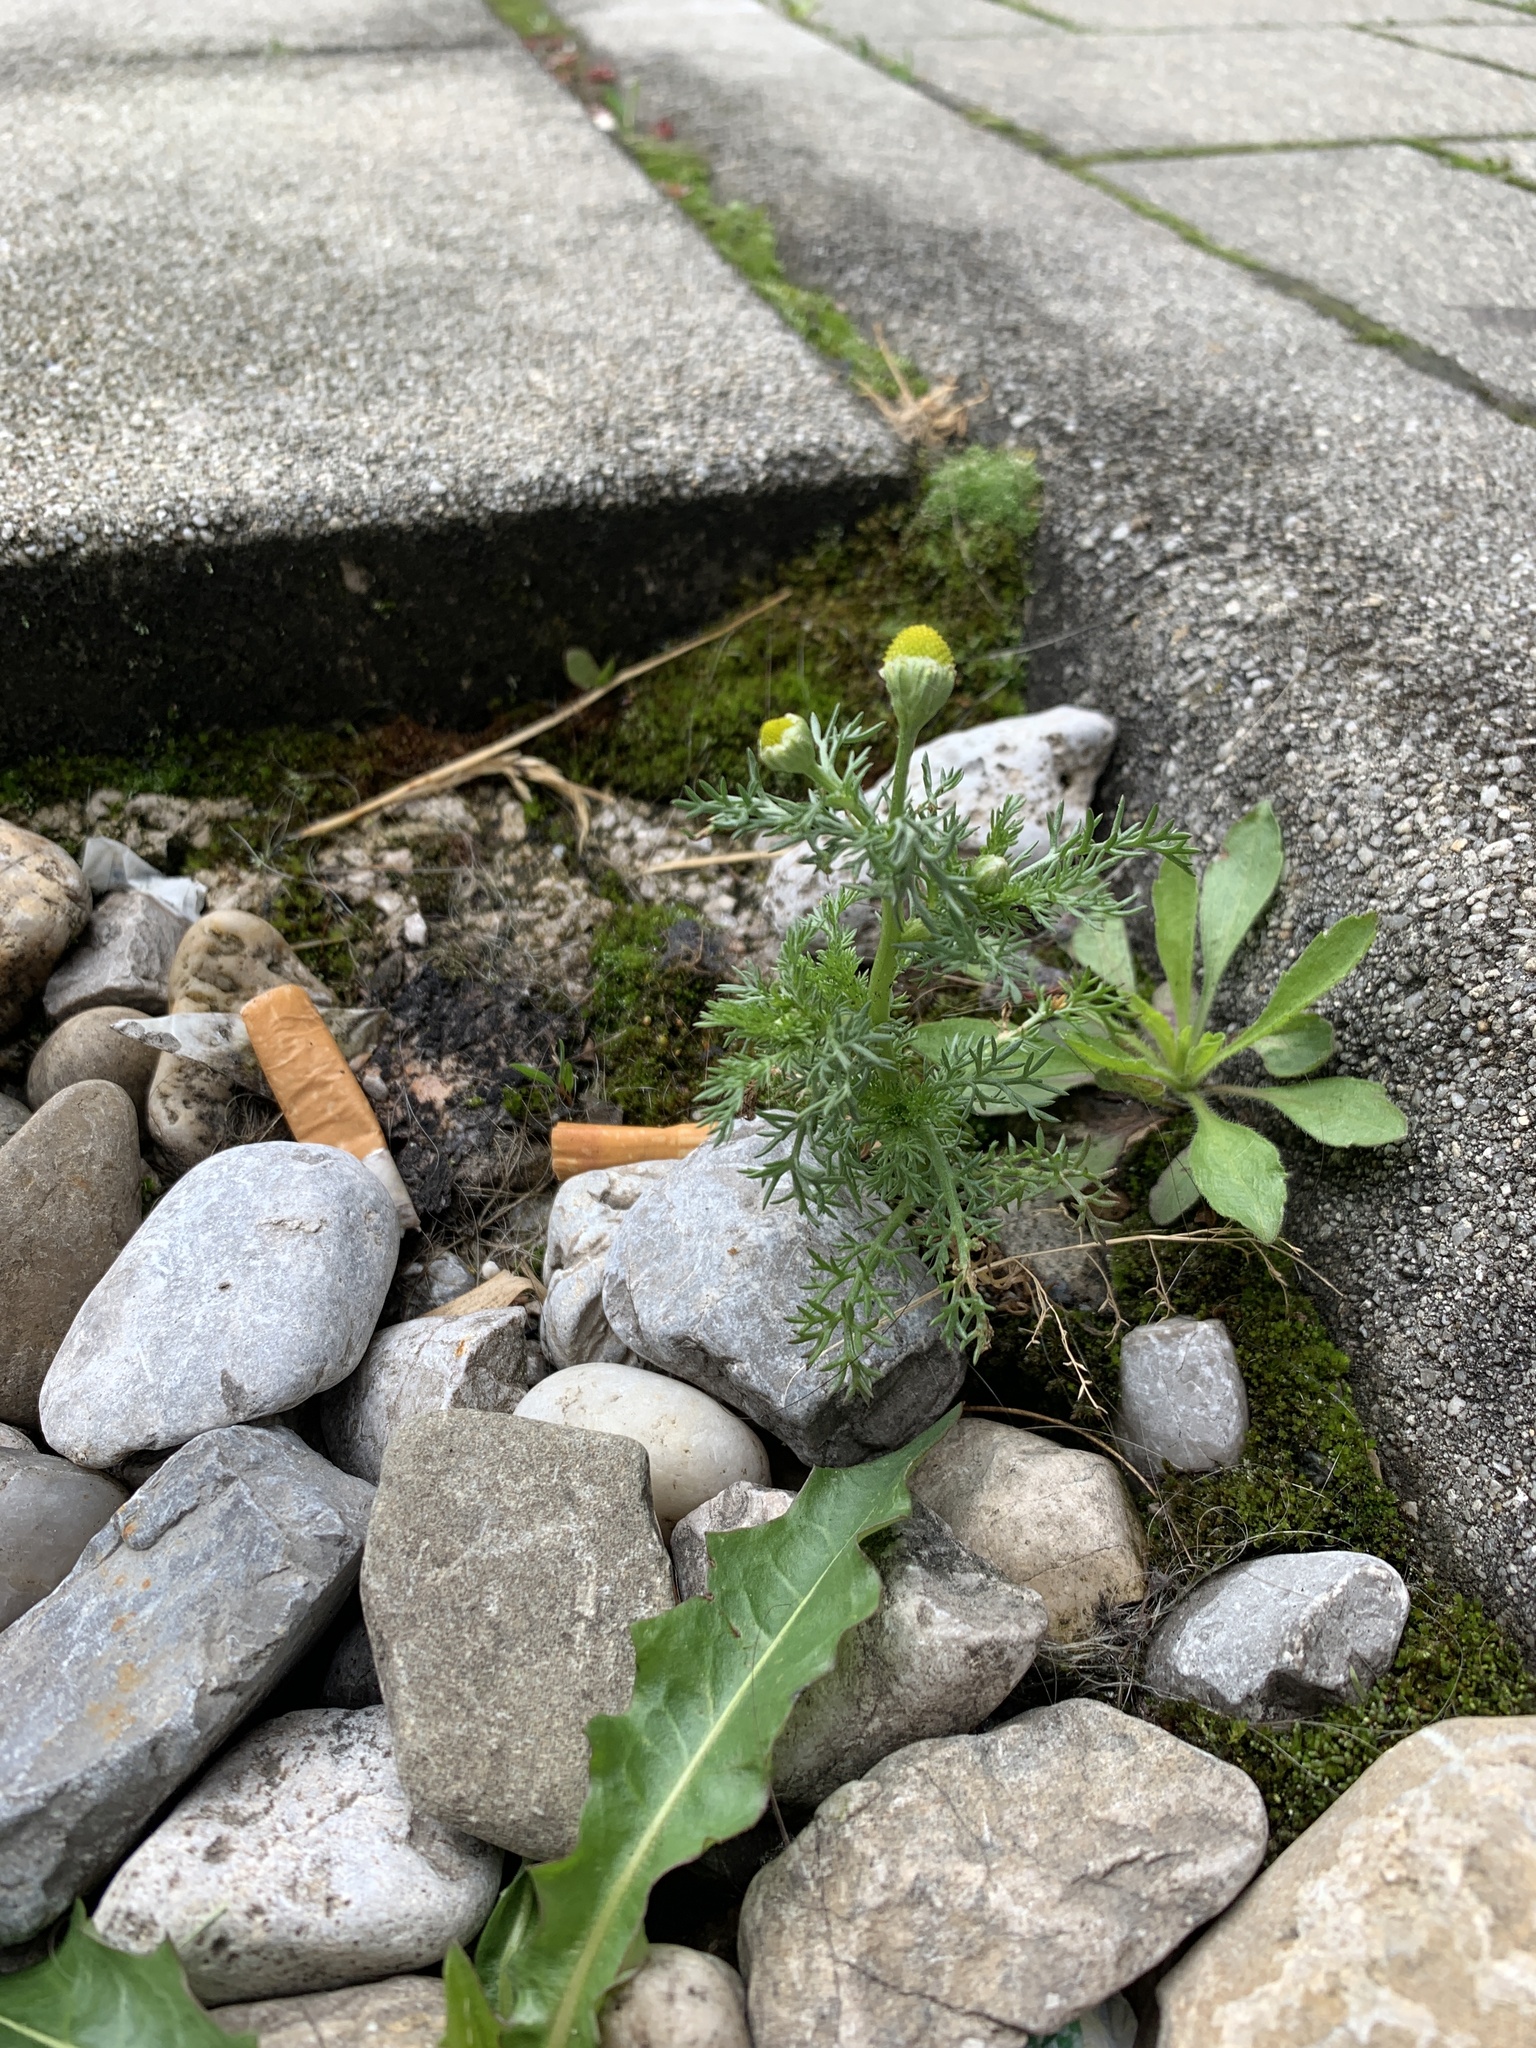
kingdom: Plantae
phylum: Tracheophyta
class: Magnoliopsida
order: Asterales
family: Asteraceae
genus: Matricaria
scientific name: Matricaria discoidea
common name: Disc mayweed
